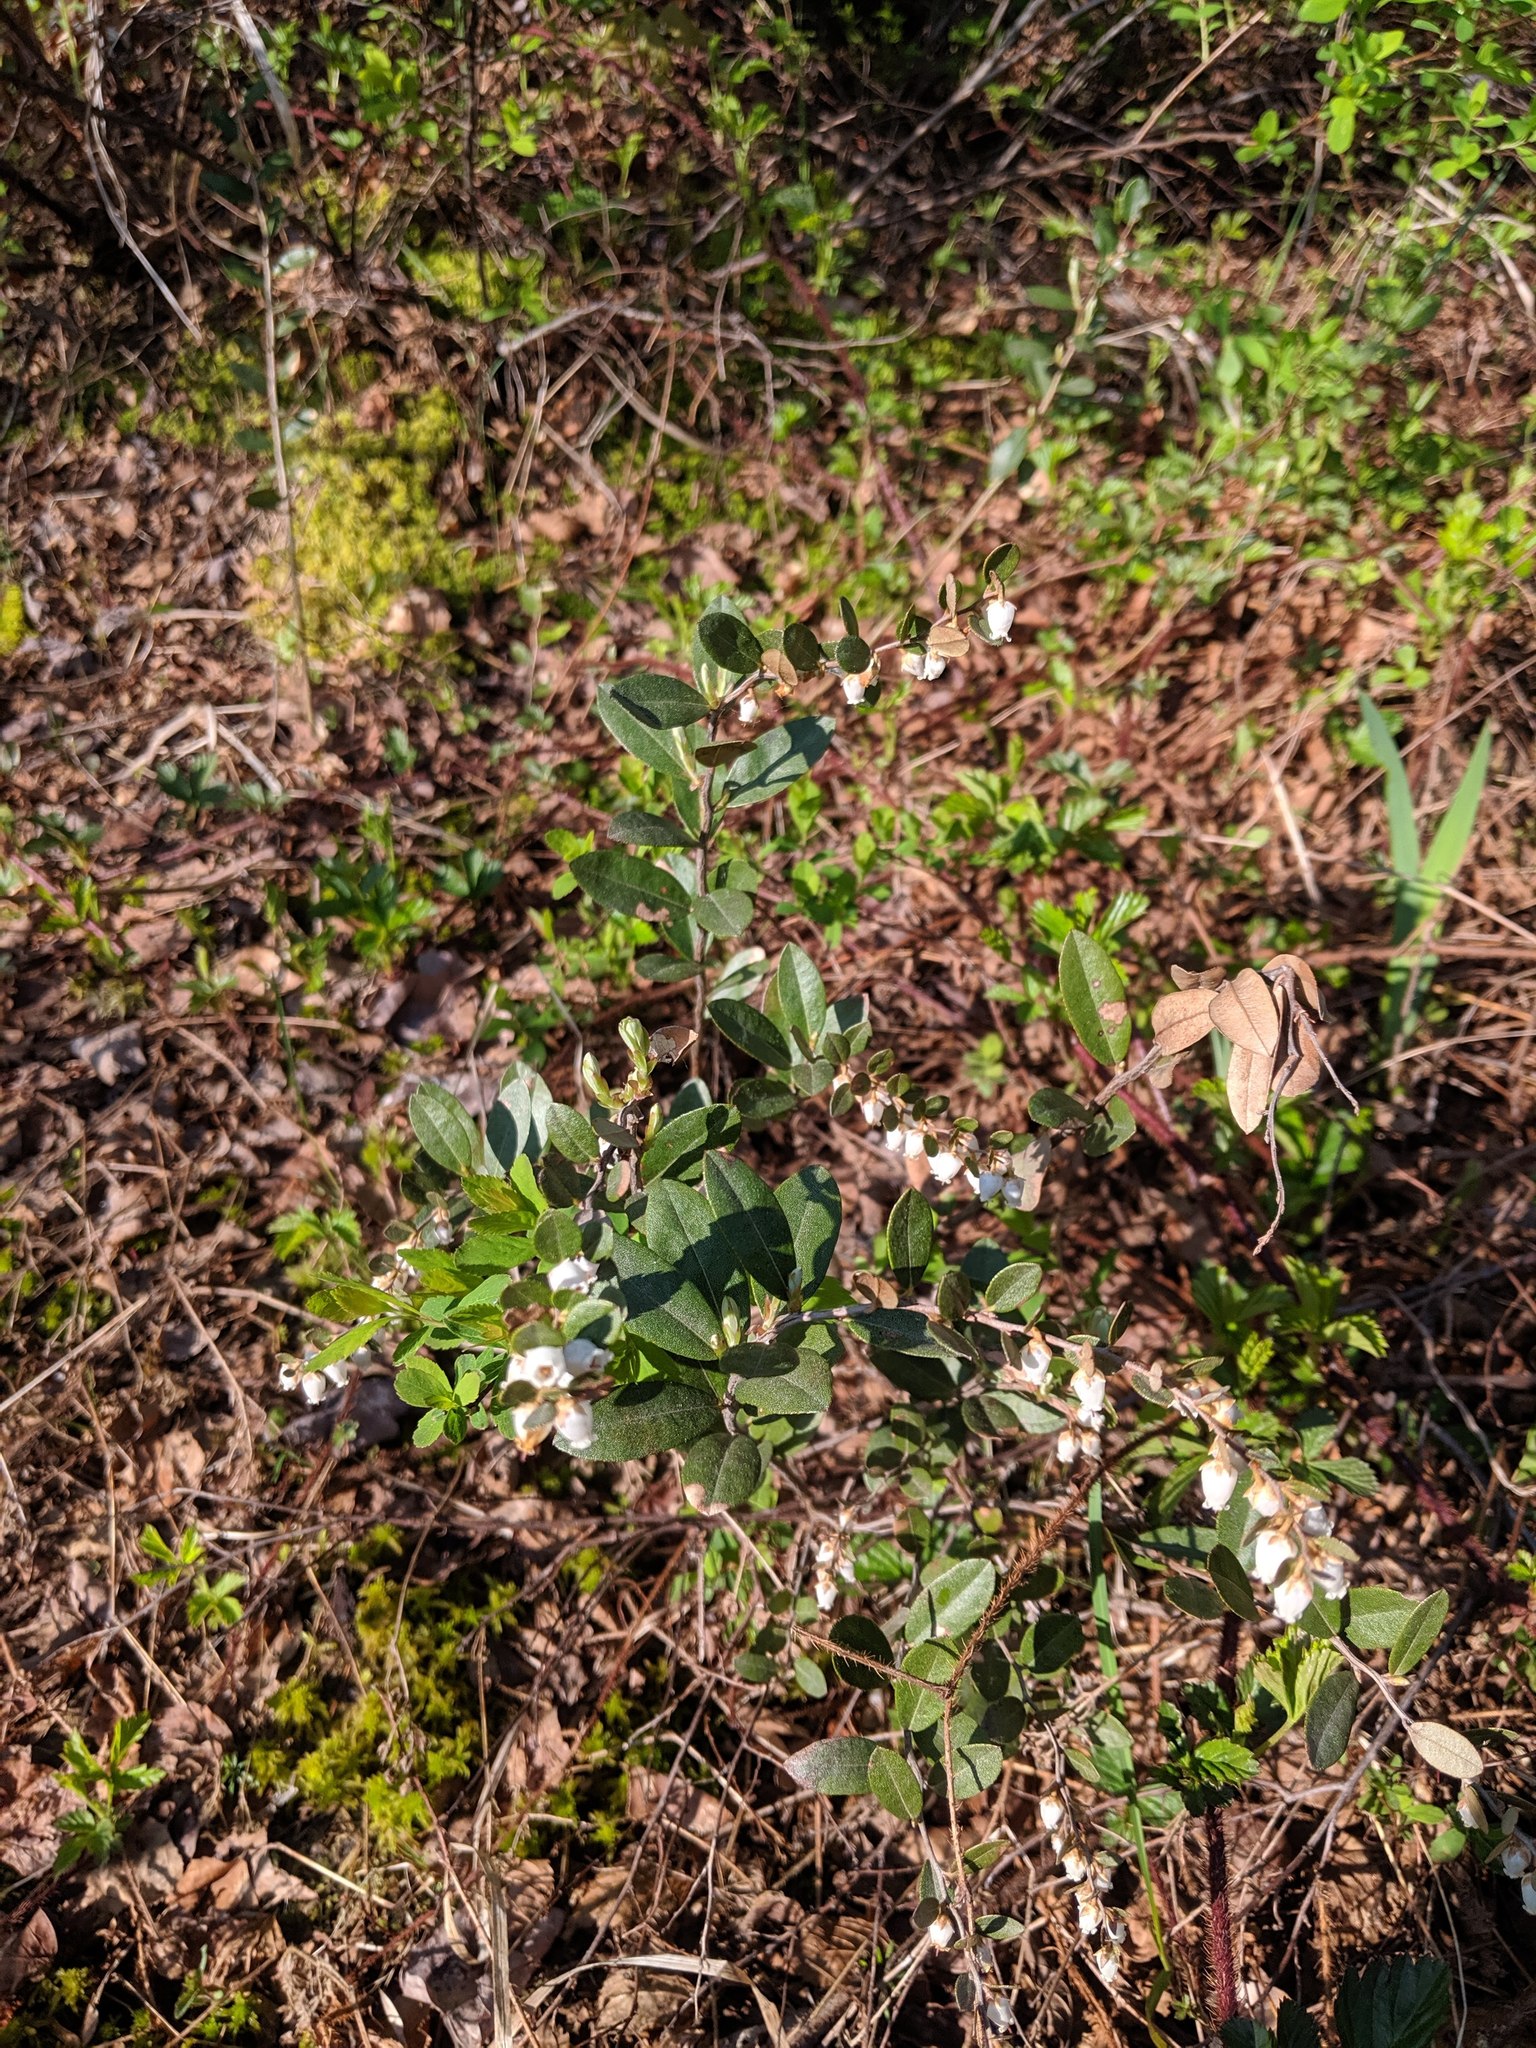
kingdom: Plantae
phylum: Tracheophyta
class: Magnoliopsida
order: Ericales
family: Ericaceae
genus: Chamaedaphne
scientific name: Chamaedaphne calyculata
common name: Leatherleaf
